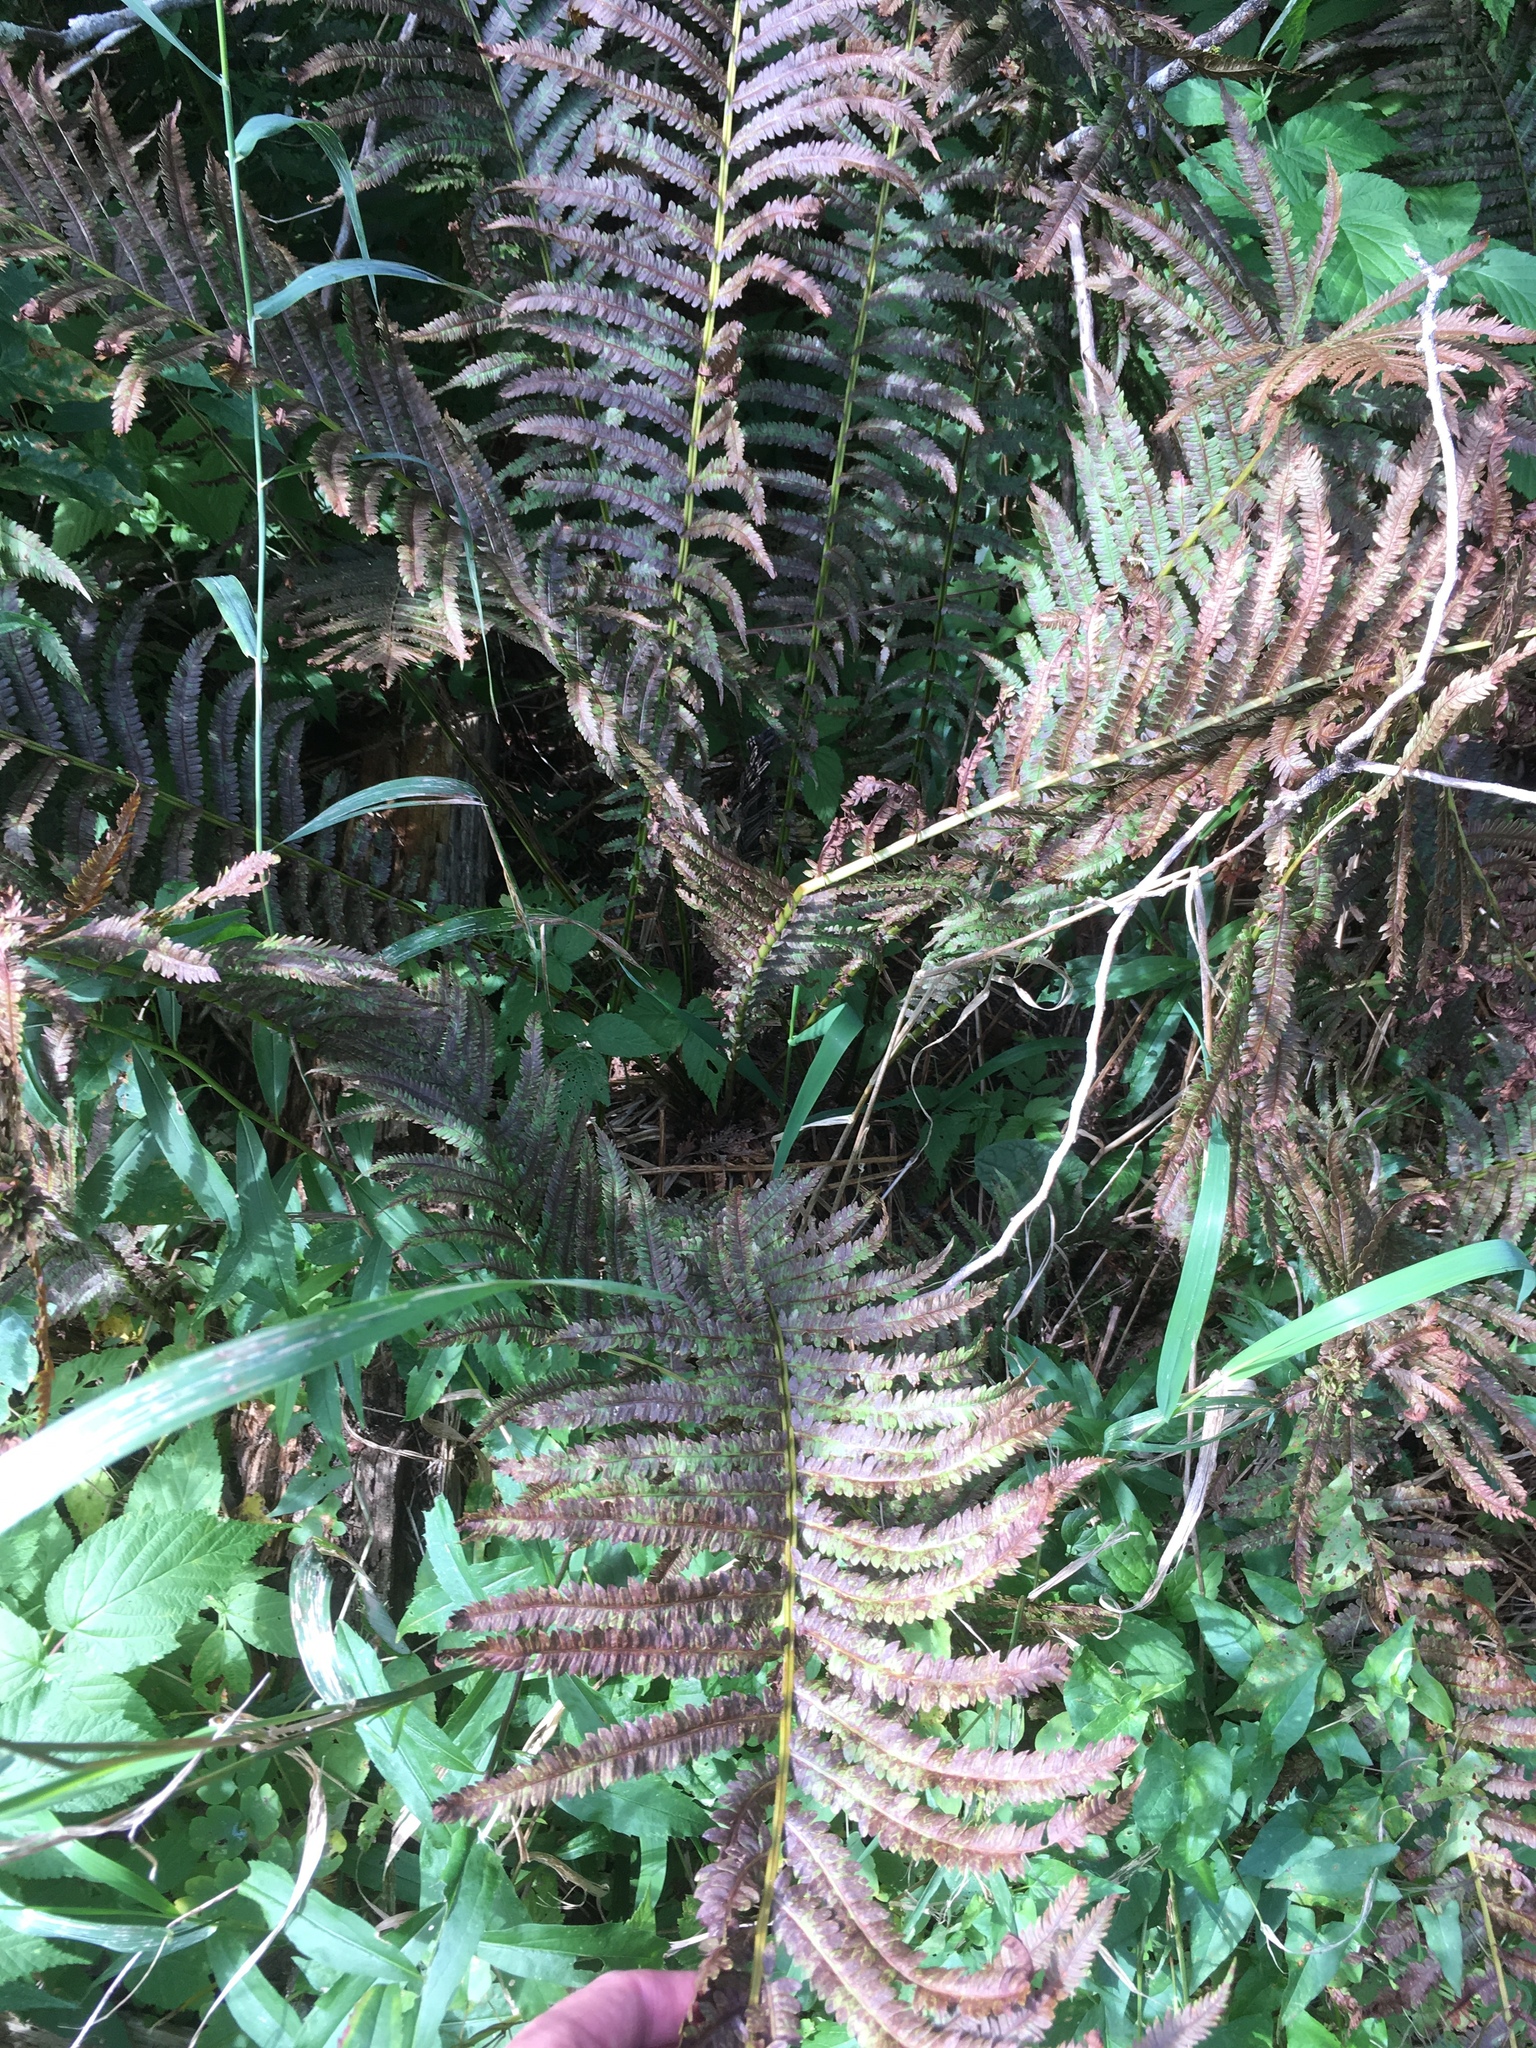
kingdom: Plantae
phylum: Tracheophyta
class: Polypodiopsida
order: Polypodiales
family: Onocleaceae
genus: Matteuccia
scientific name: Matteuccia struthiopteris
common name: Ostrich fern
